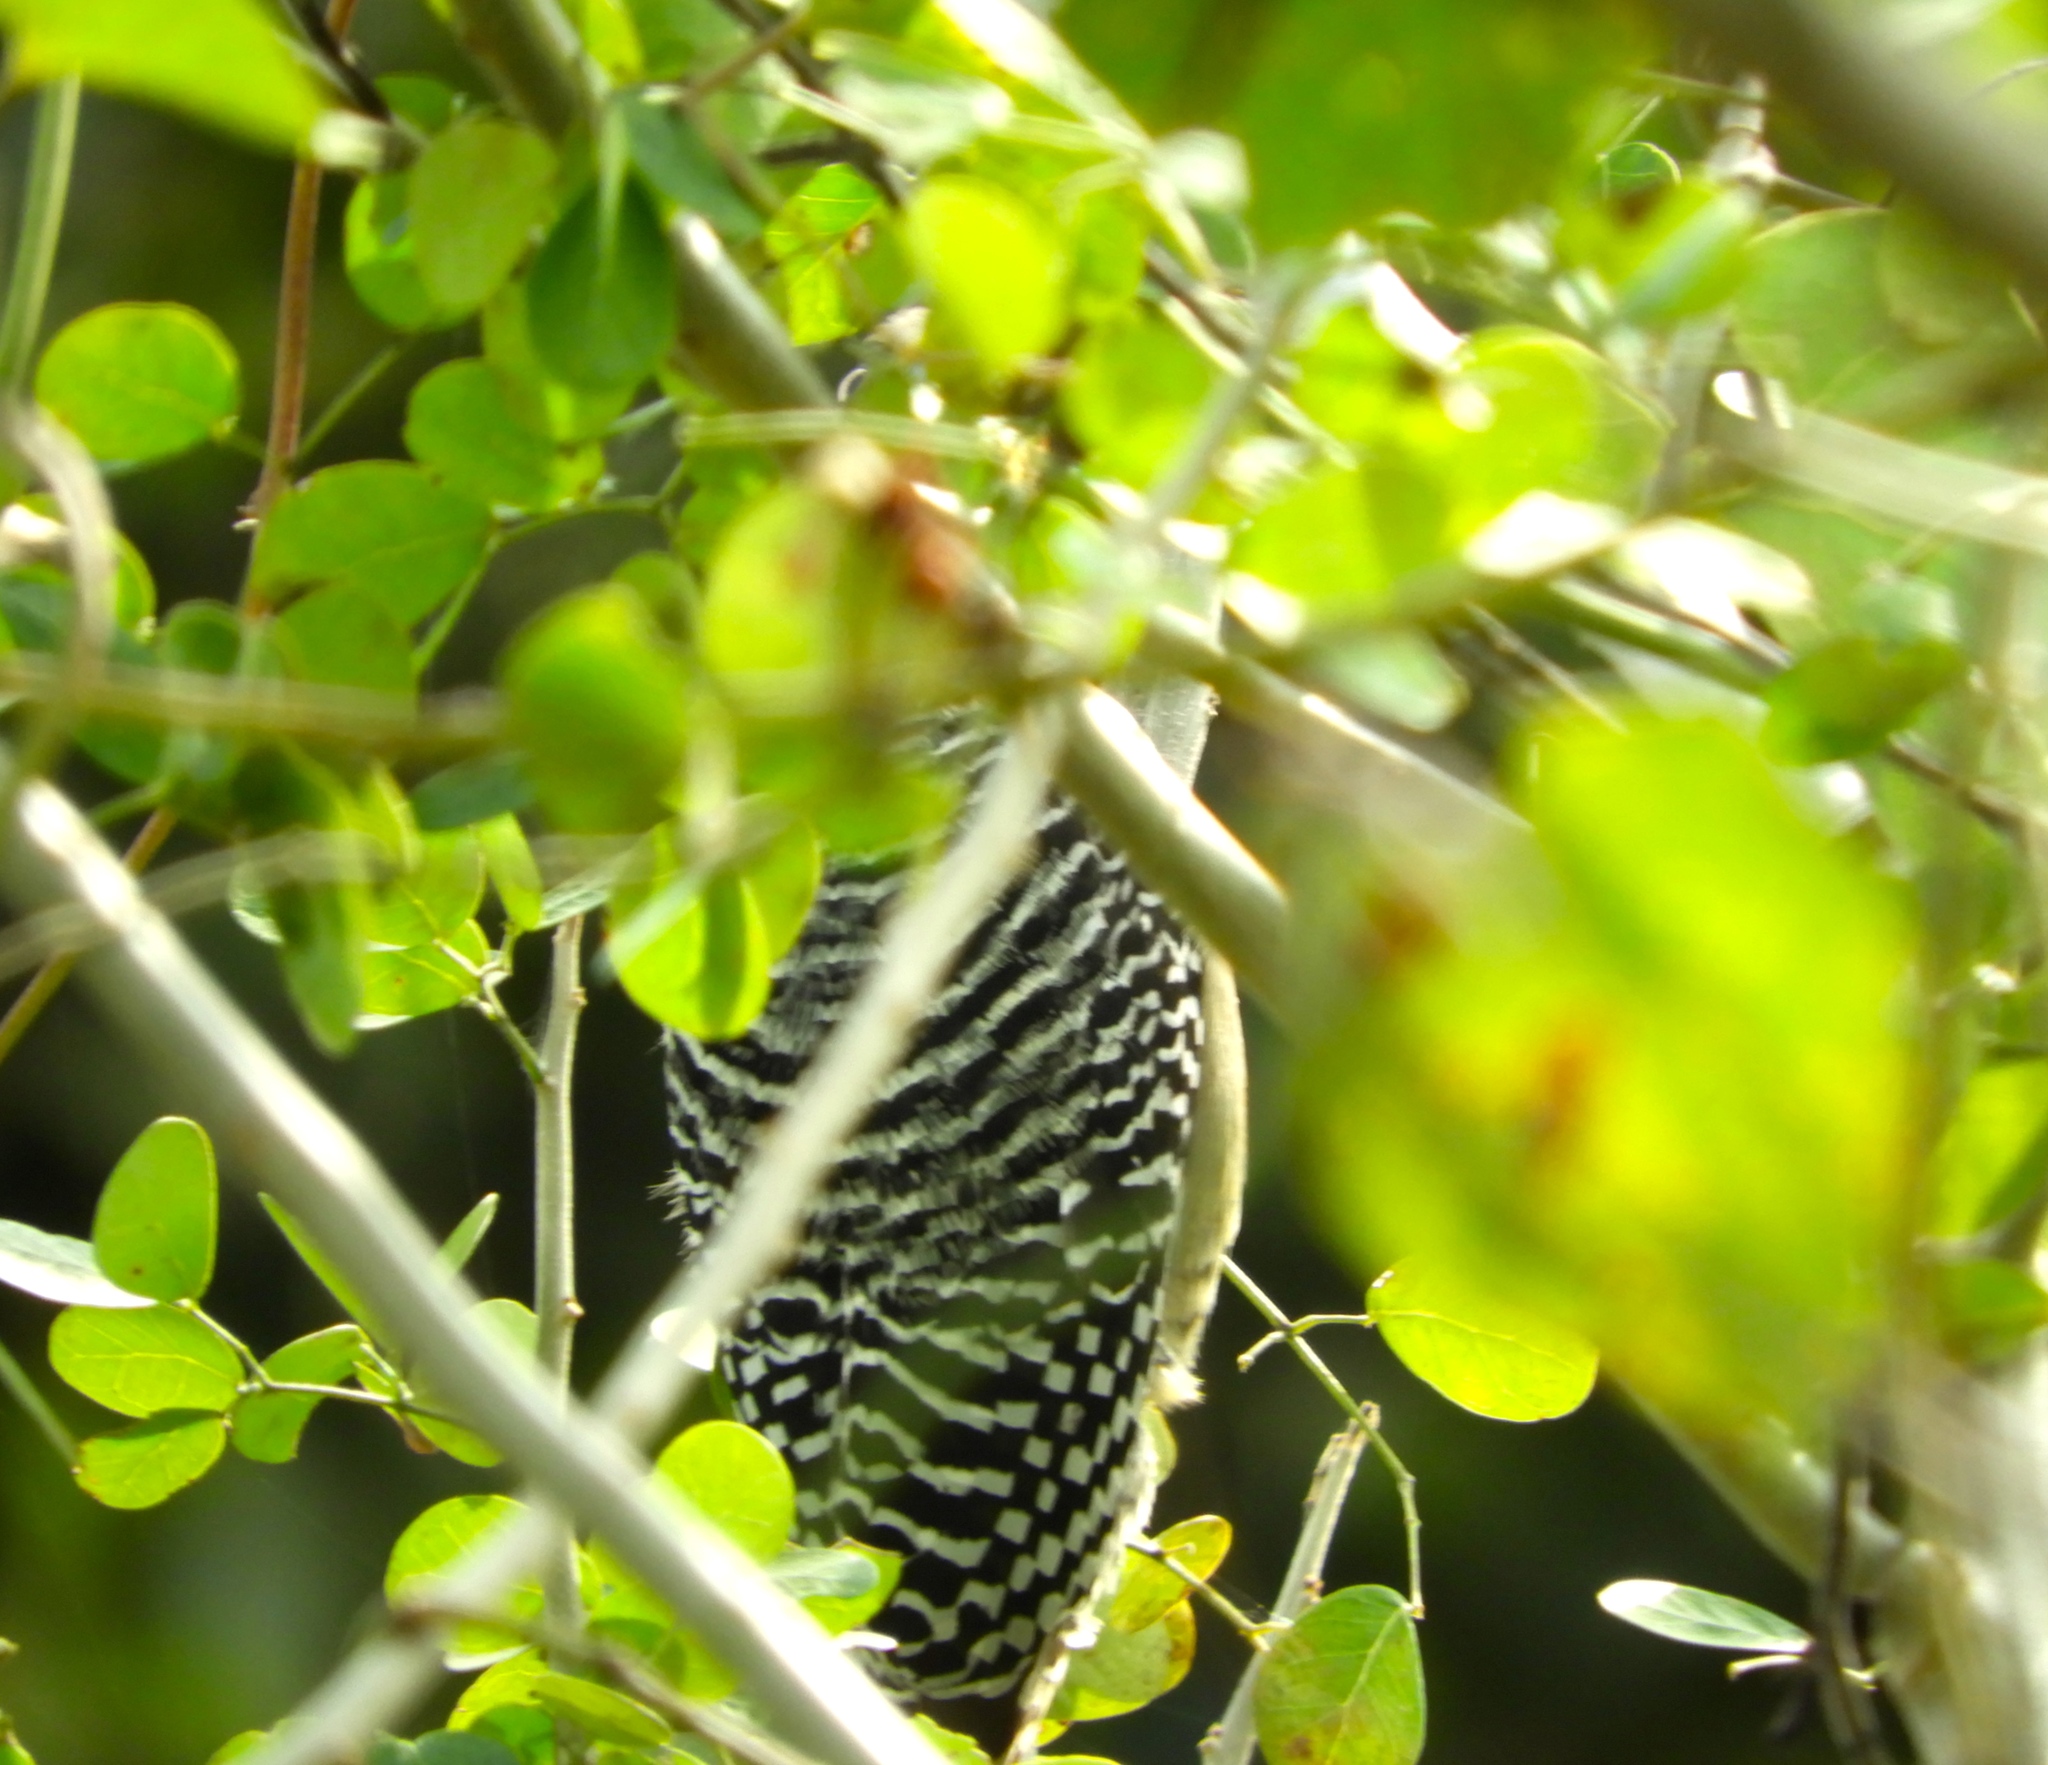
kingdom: Animalia
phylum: Chordata
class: Aves
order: Piciformes
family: Picidae
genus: Melanerpes
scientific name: Melanerpes chrysogenys
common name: Golden-cheeked woodpecker
